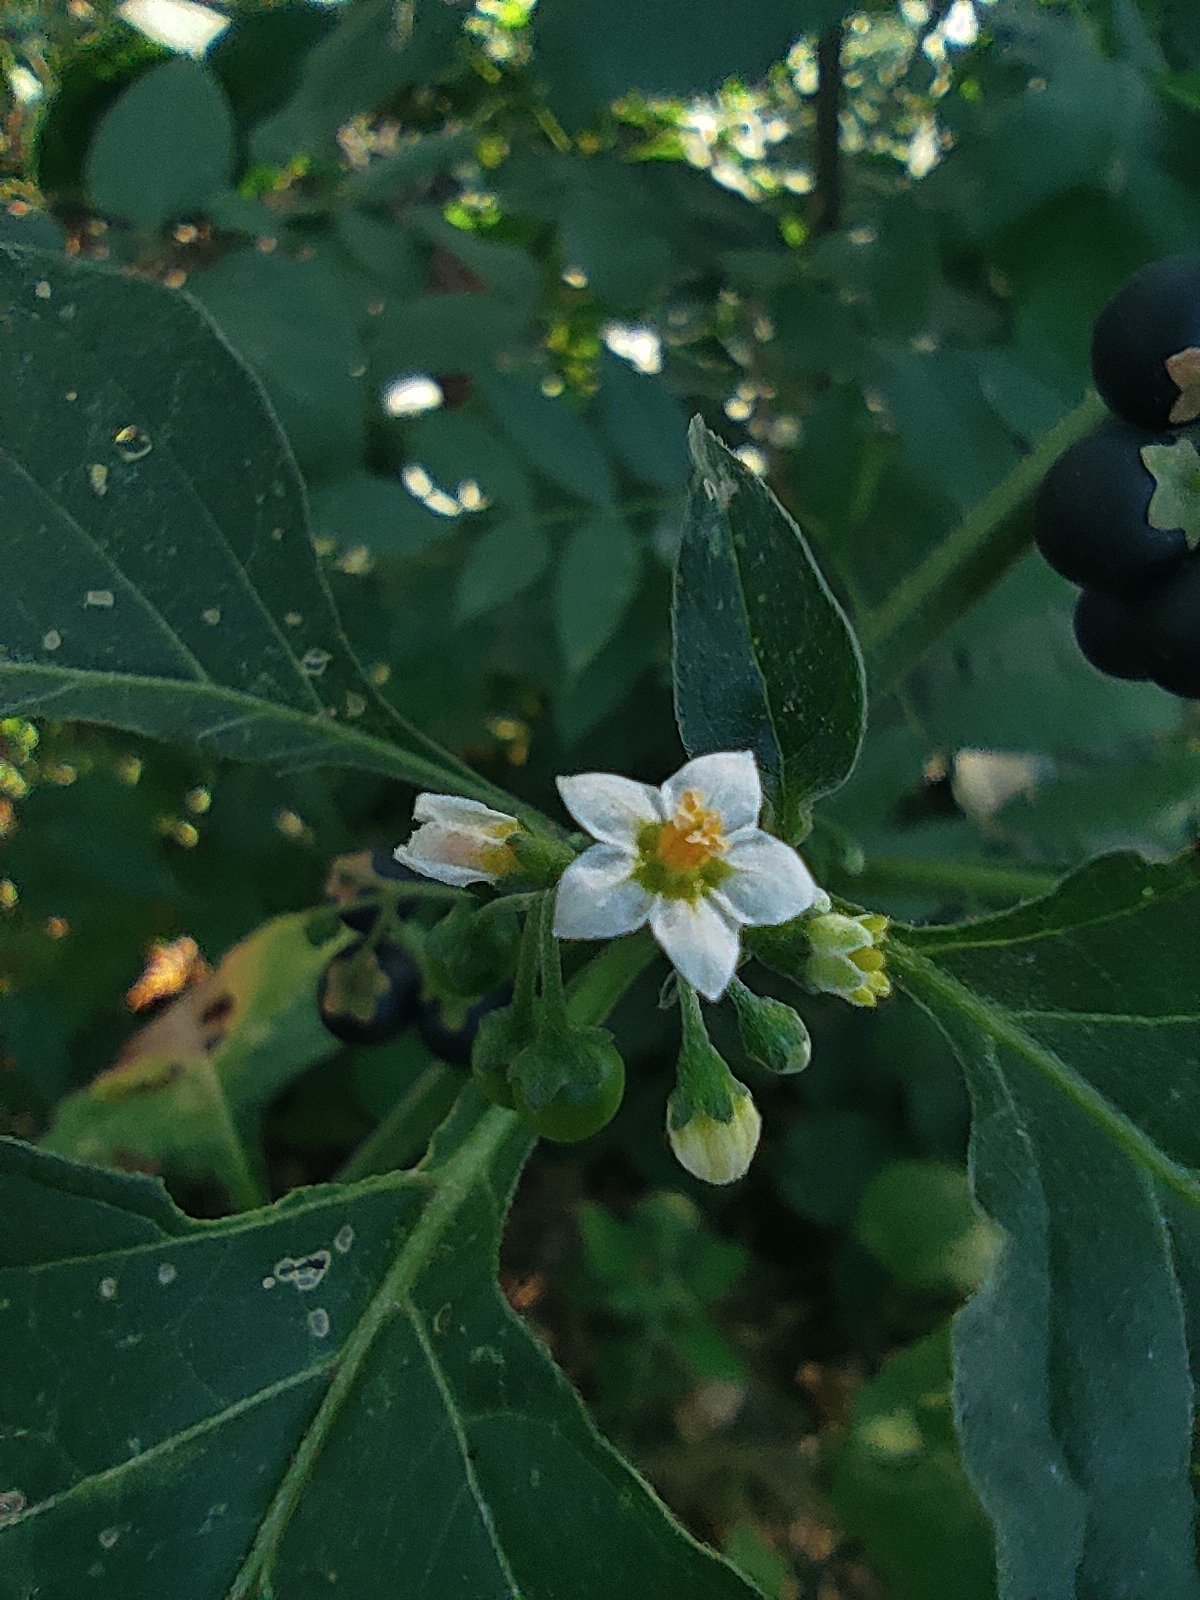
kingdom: Plantae
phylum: Tracheophyta
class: Magnoliopsida
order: Solanales
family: Solanaceae
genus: Solanum
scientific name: Solanum nigrum
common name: Black nightshade
